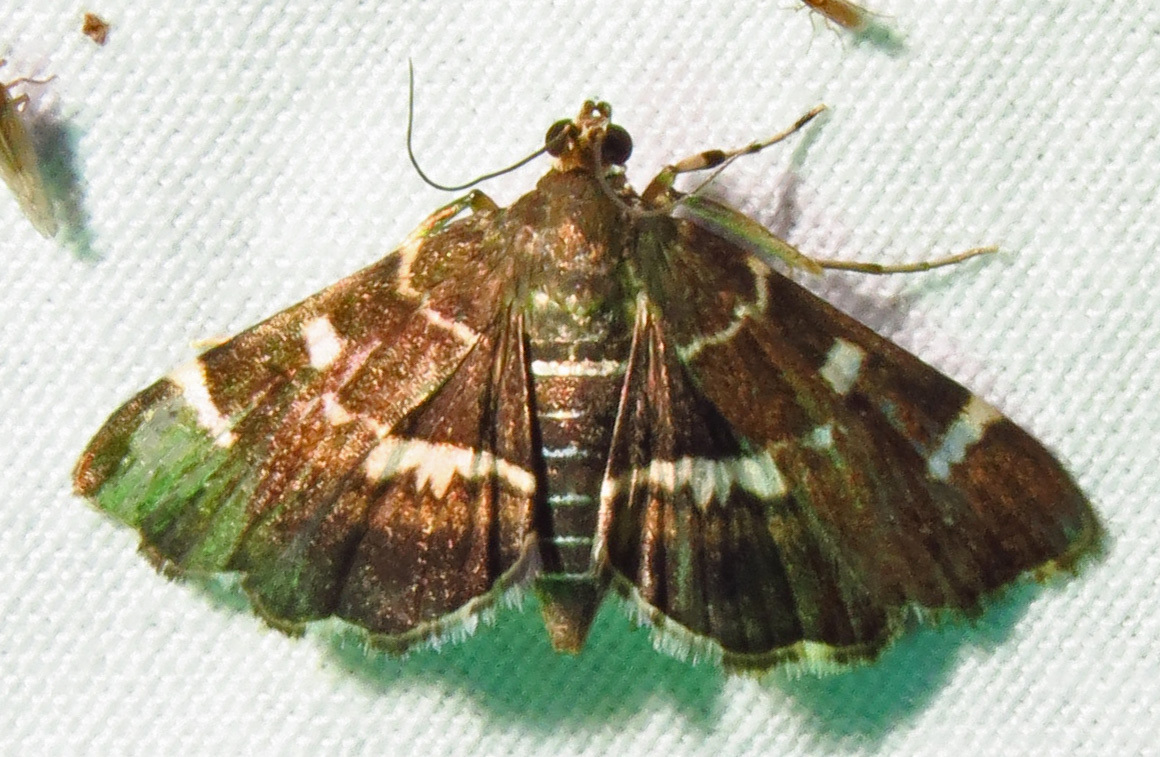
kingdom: Animalia
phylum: Arthropoda
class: Insecta
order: Lepidoptera
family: Crambidae
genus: Hymenia
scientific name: Hymenia perspectalis
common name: Spotted beet webworm
